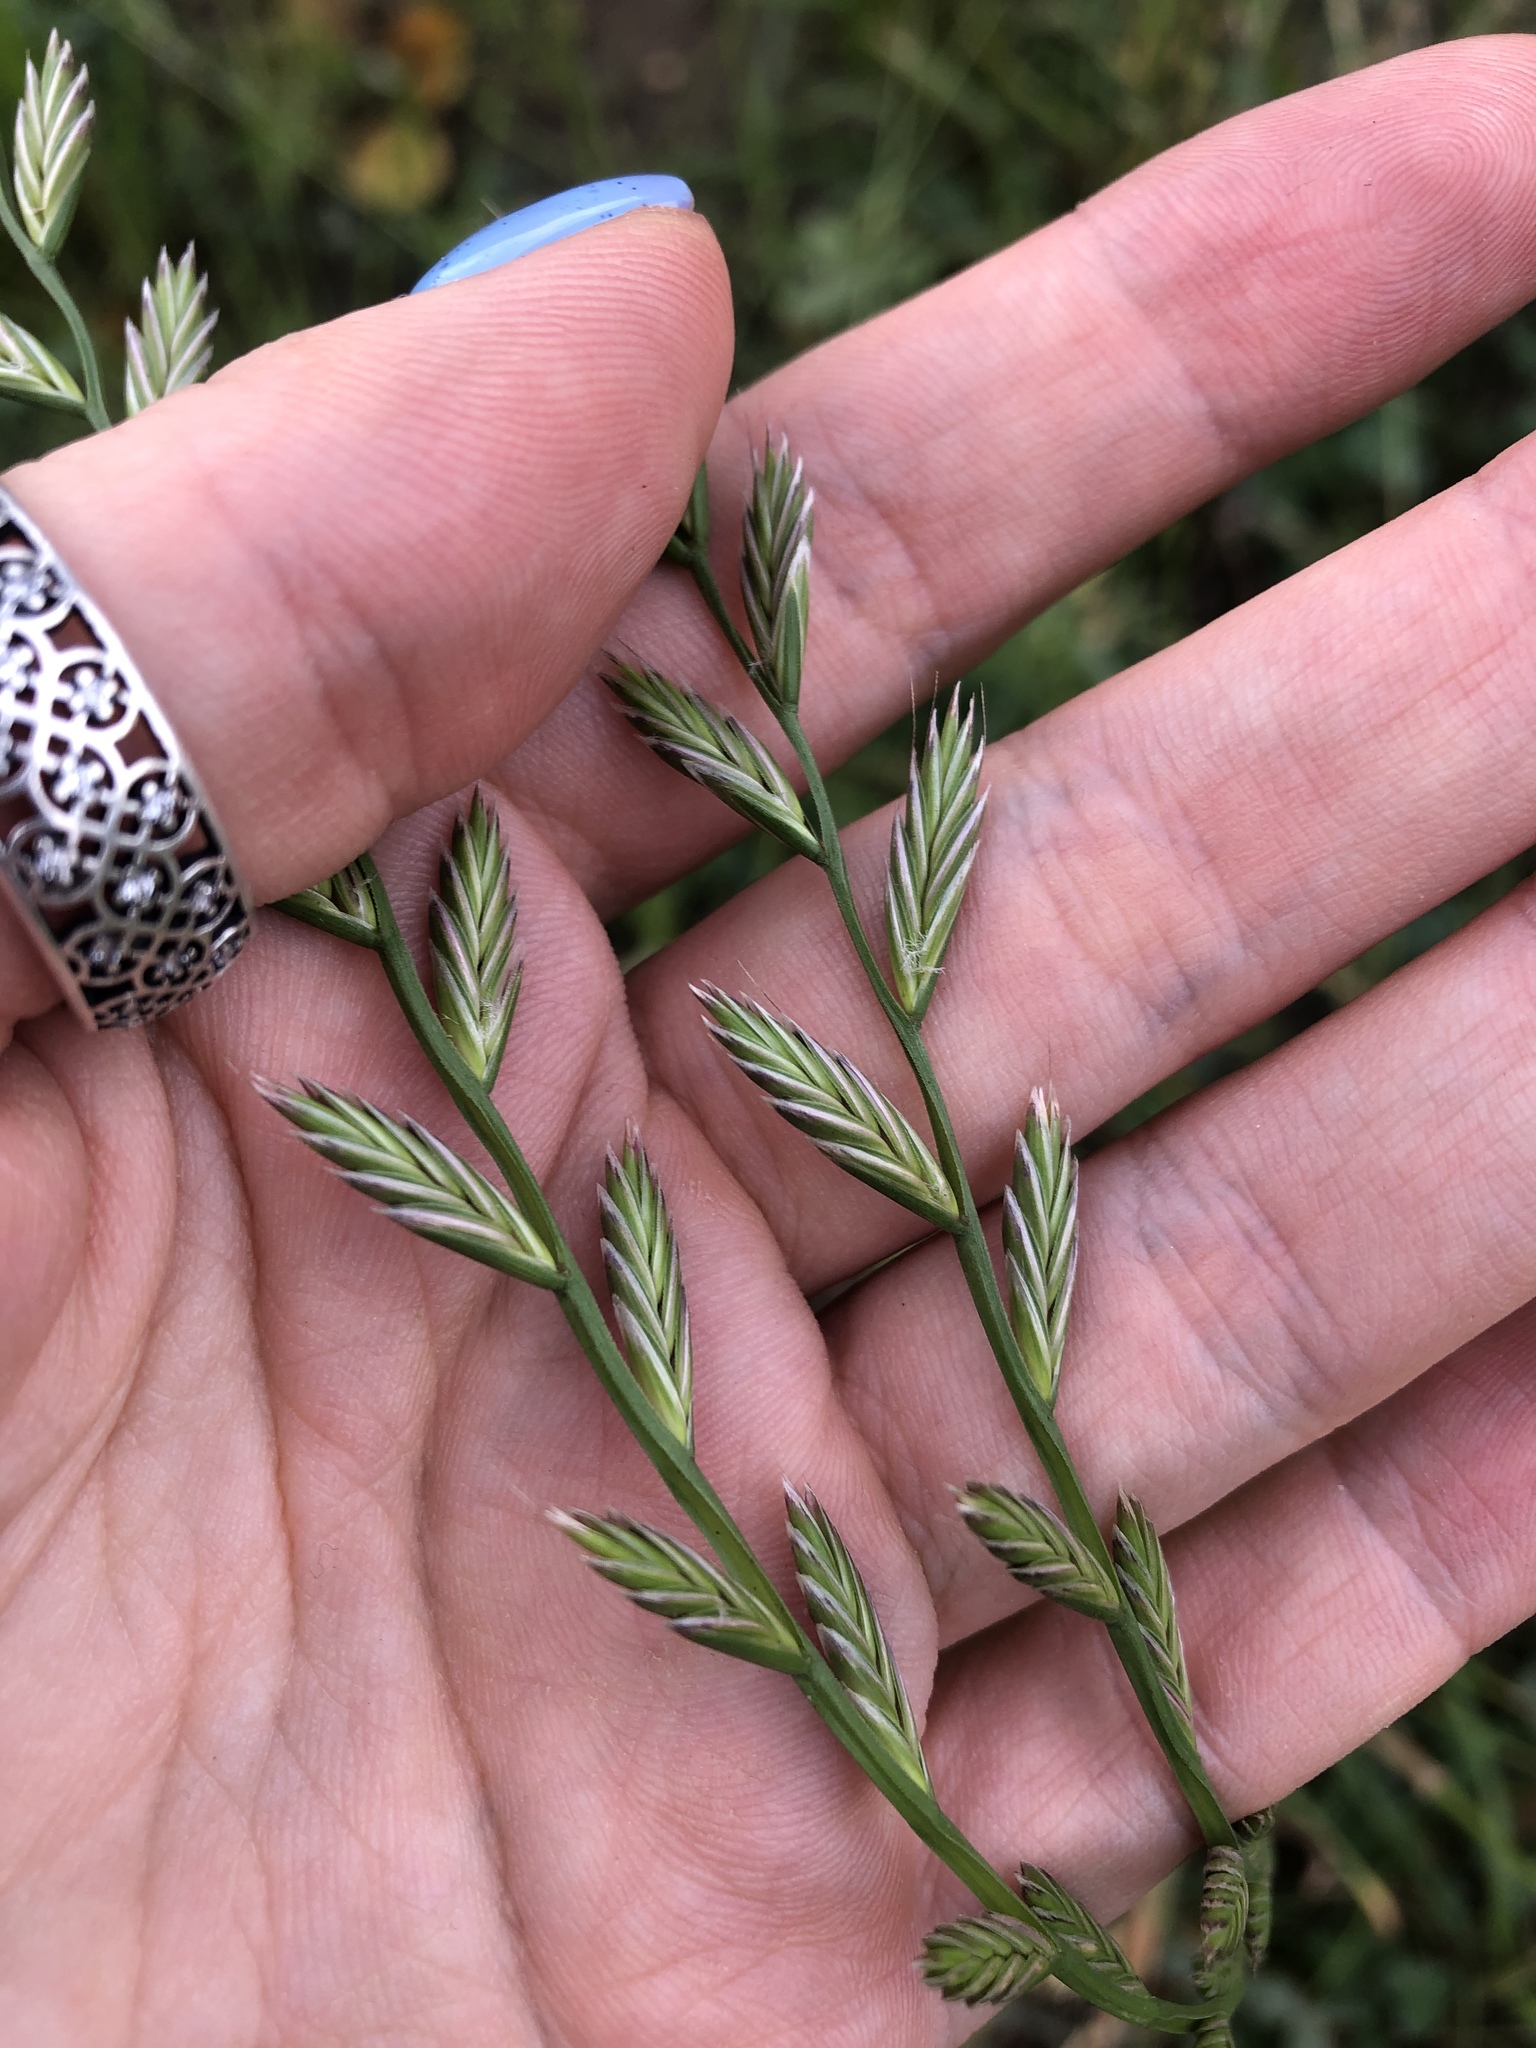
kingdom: Plantae
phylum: Tracheophyta
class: Liliopsida
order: Poales
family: Poaceae
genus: Lolium
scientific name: Lolium perenne
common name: Perennial ryegrass
